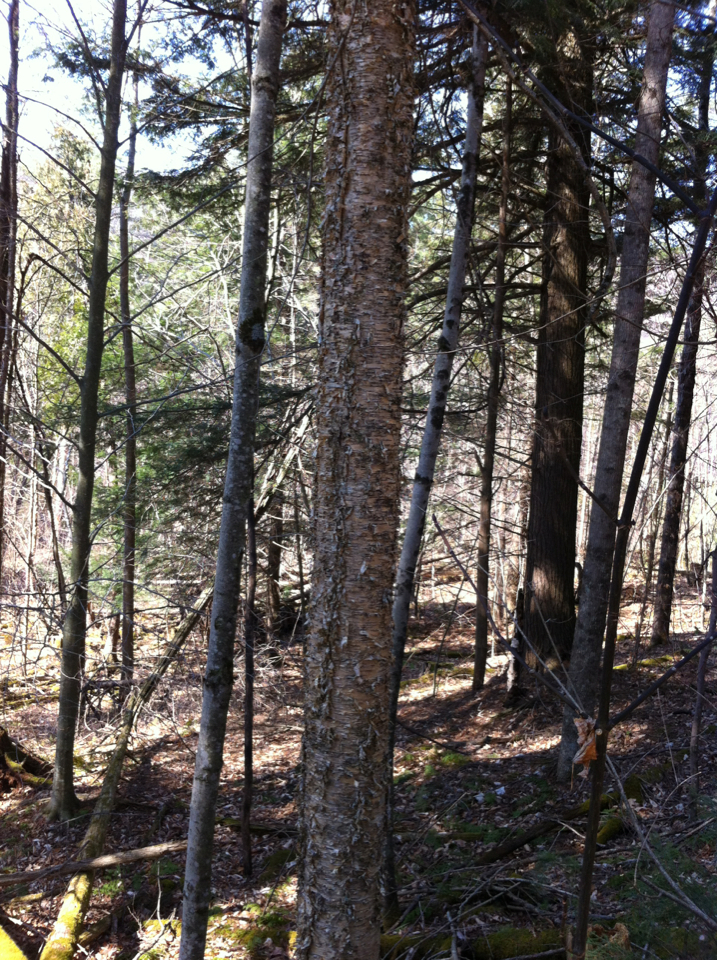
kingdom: Plantae
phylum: Tracheophyta
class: Magnoliopsida
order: Fagales
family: Betulaceae
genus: Betula
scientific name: Betula alleghaniensis
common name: Yellow birch
